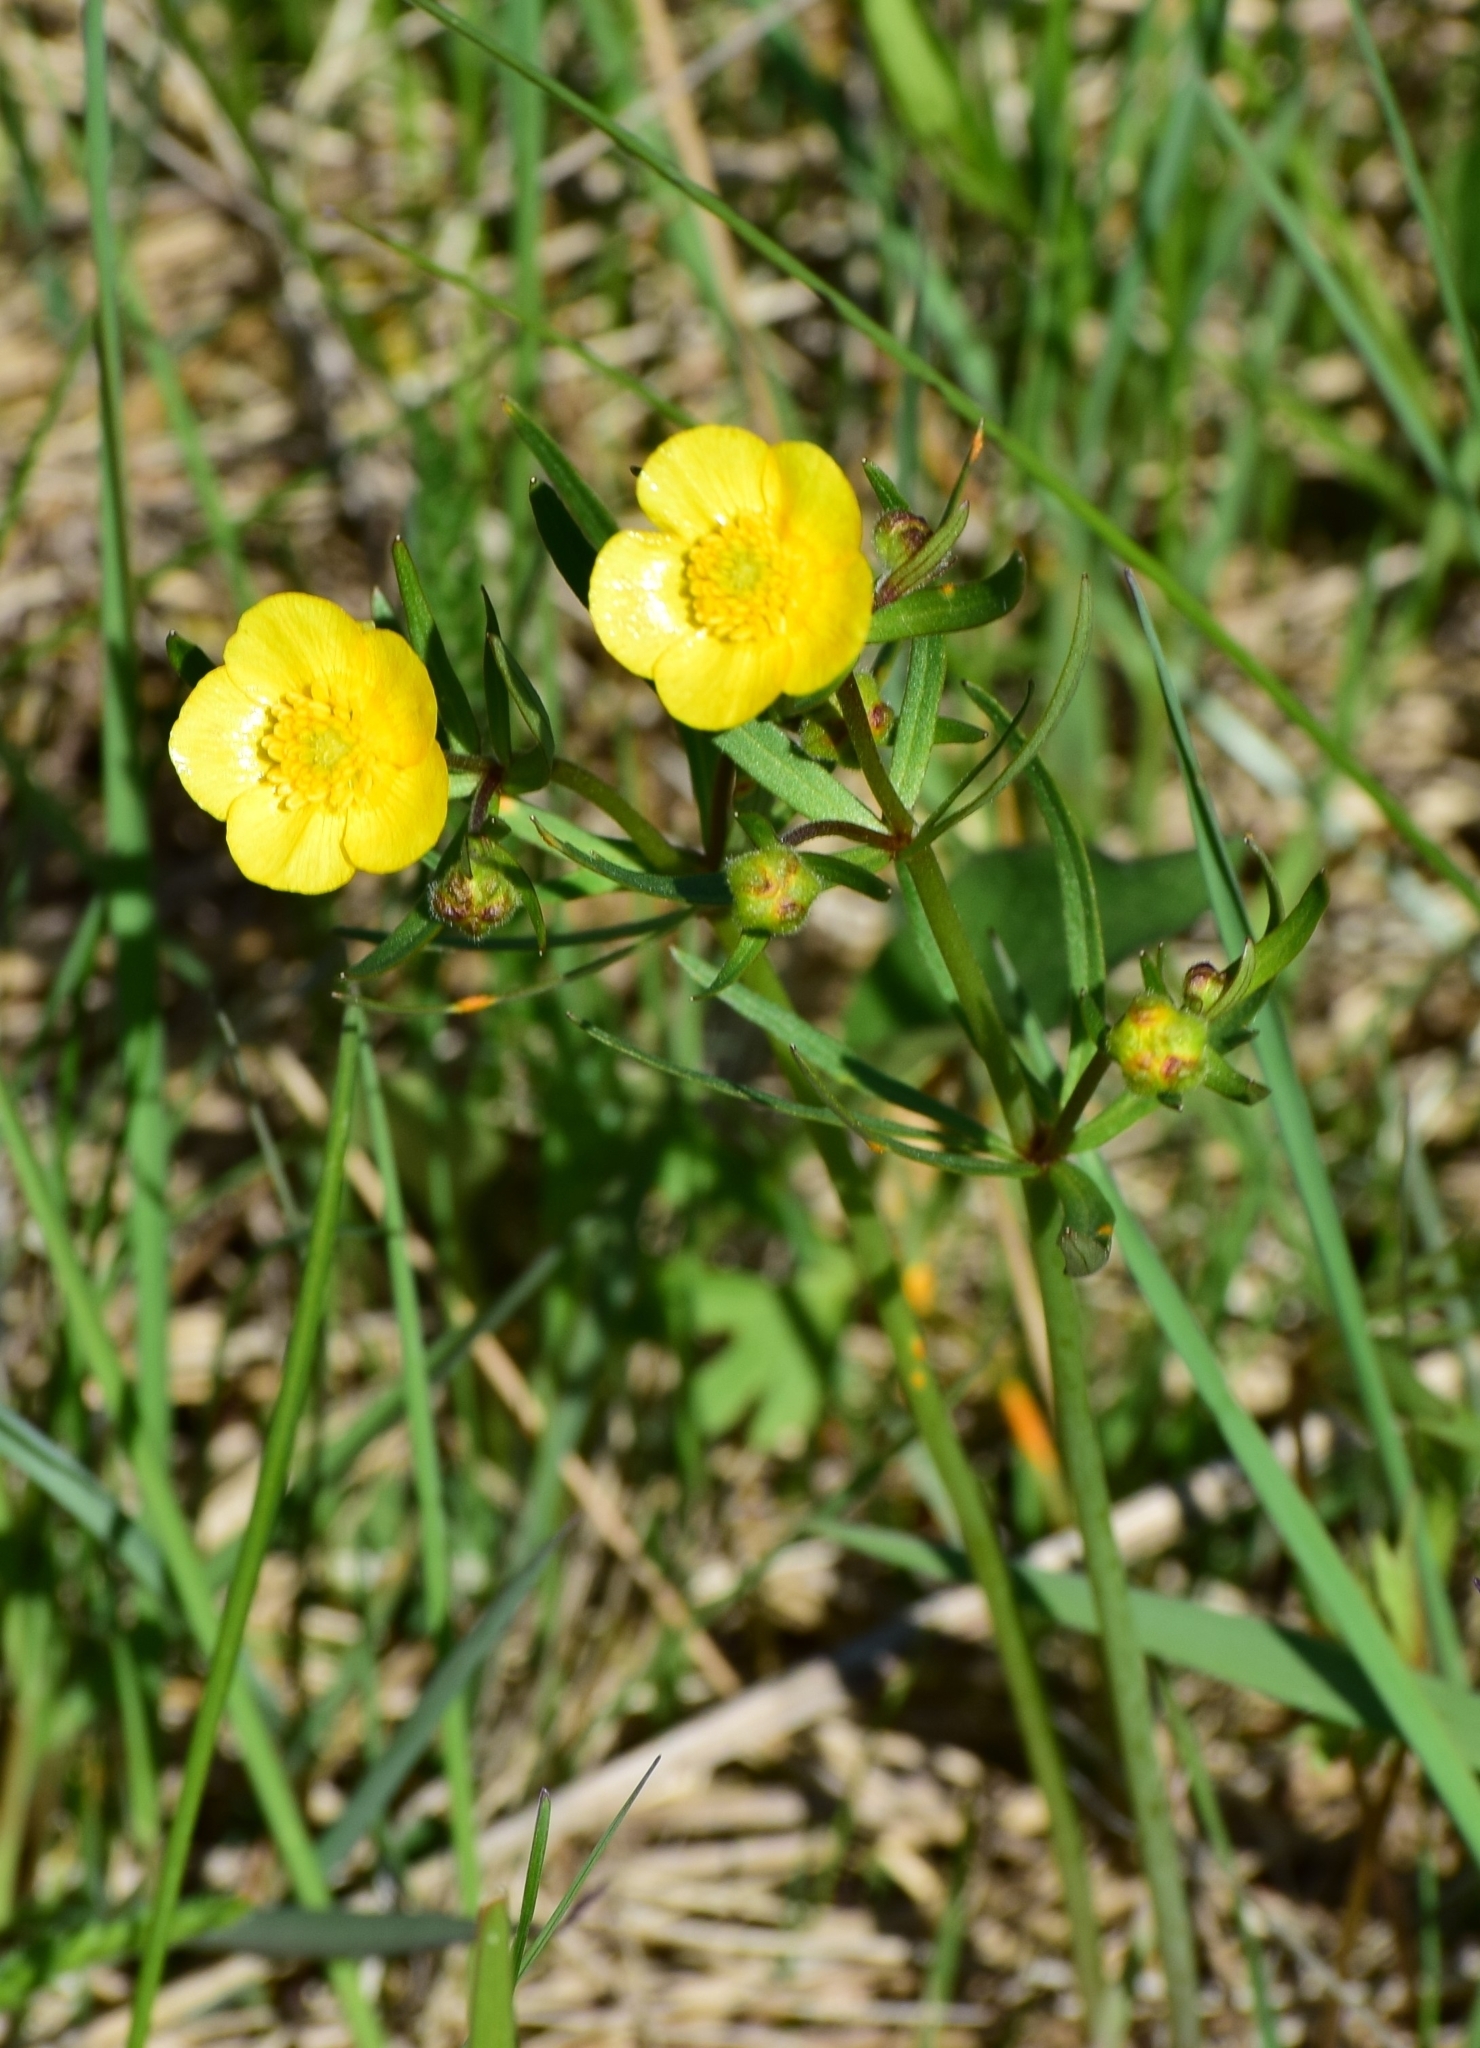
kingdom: Plantae
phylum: Tracheophyta
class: Magnoliopsida
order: Ranunculales
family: Ranunculaceae
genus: Ranunculus
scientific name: Ranunculus auricomus
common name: Goldilocks buttercup
